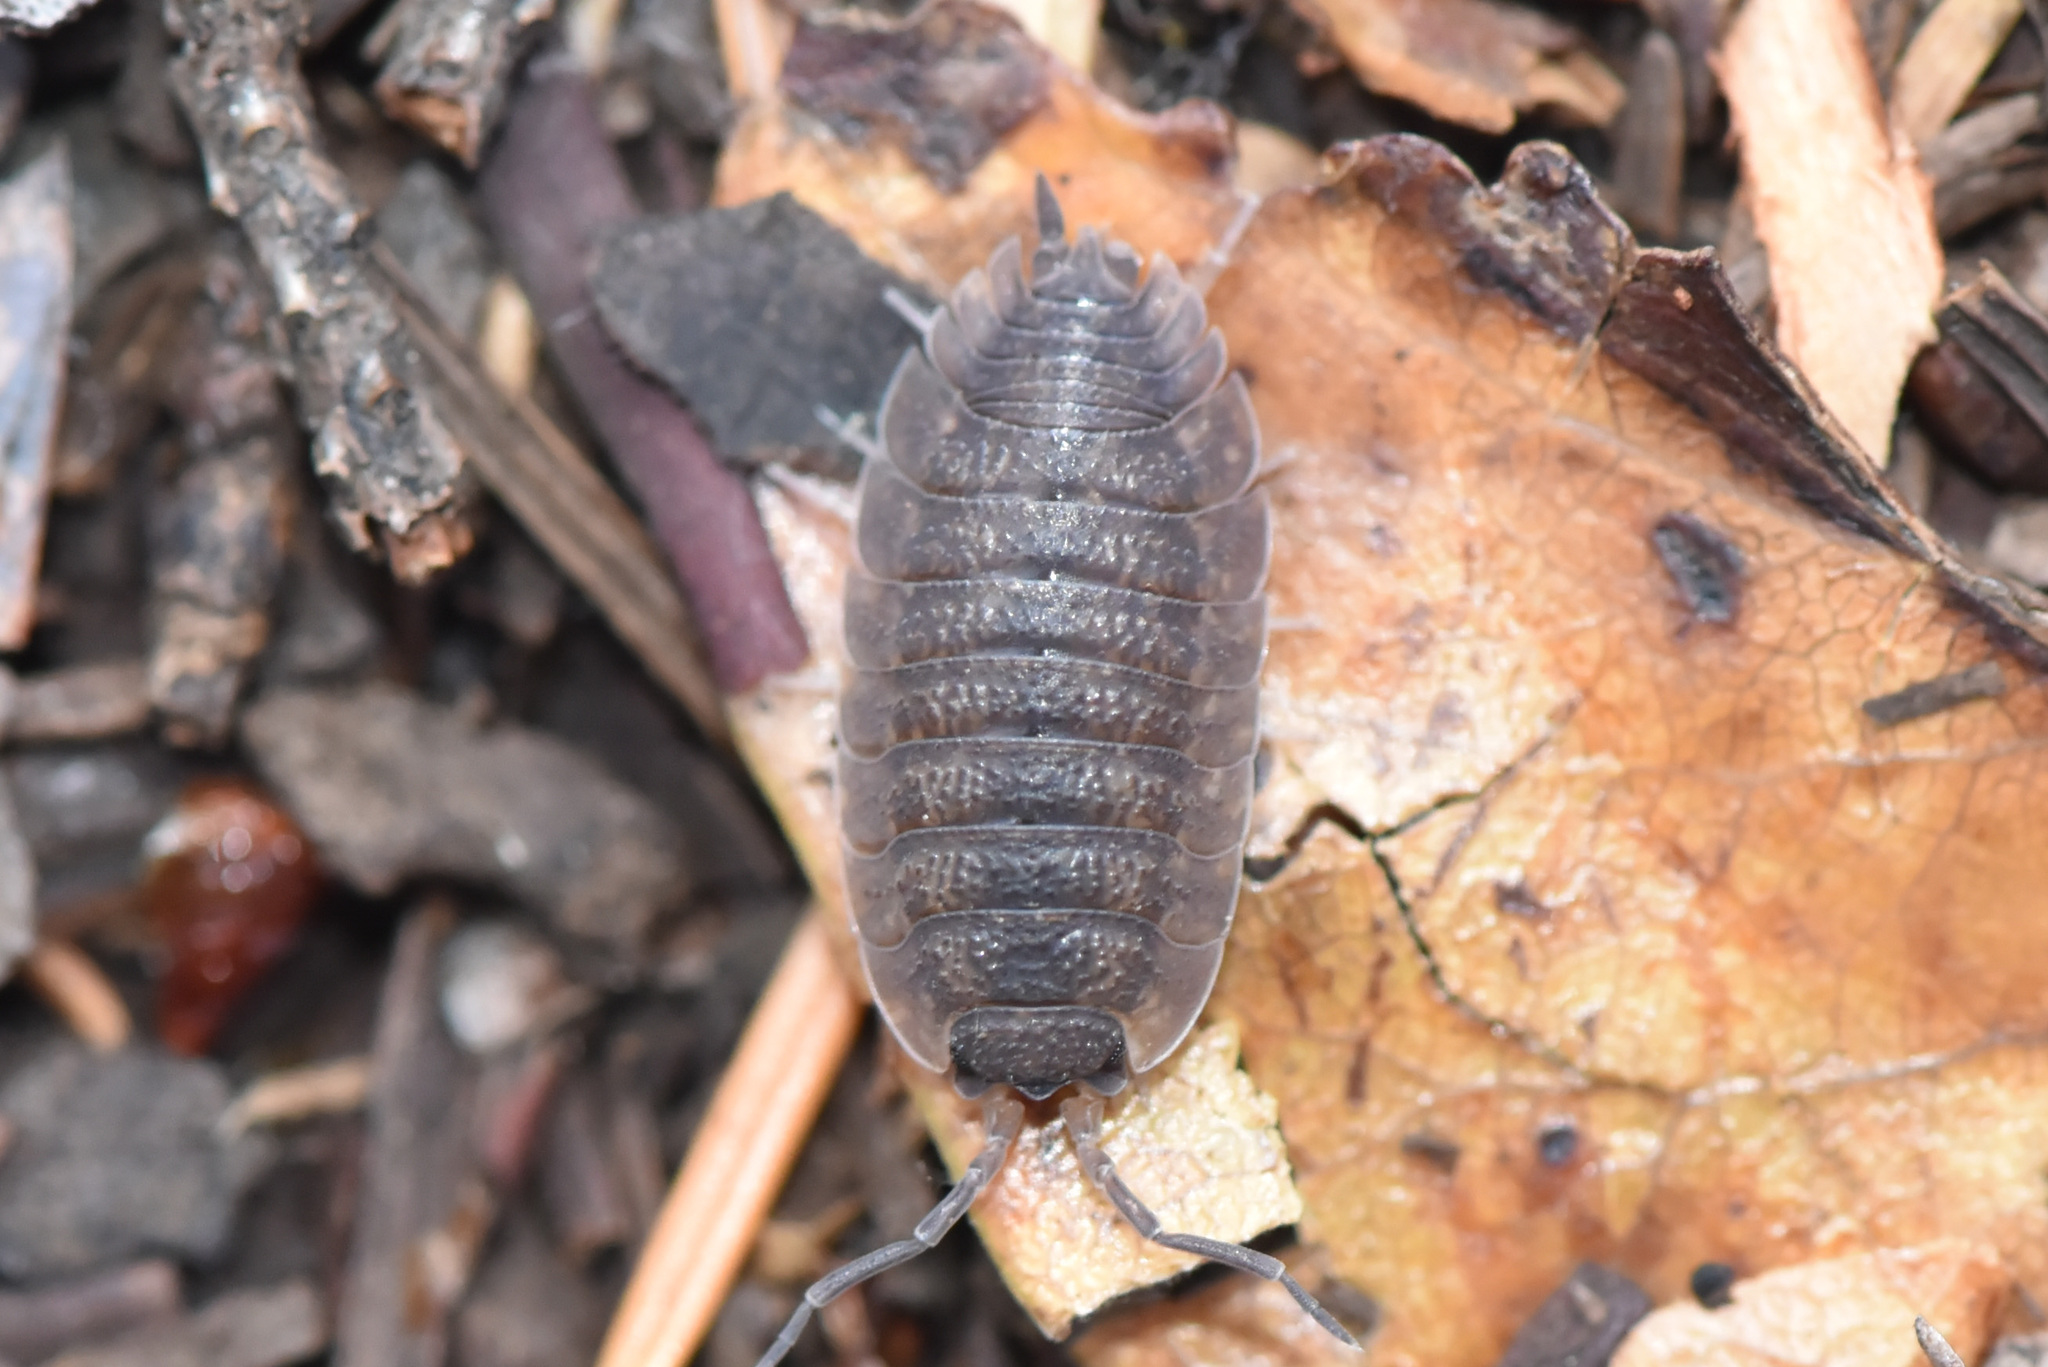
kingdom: Animalia
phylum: Arthropoda
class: Malacostraca
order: Isopoda
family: Porcellionidae
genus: Porcellio
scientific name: Porcellio scaber
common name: Common rough woodlouse
